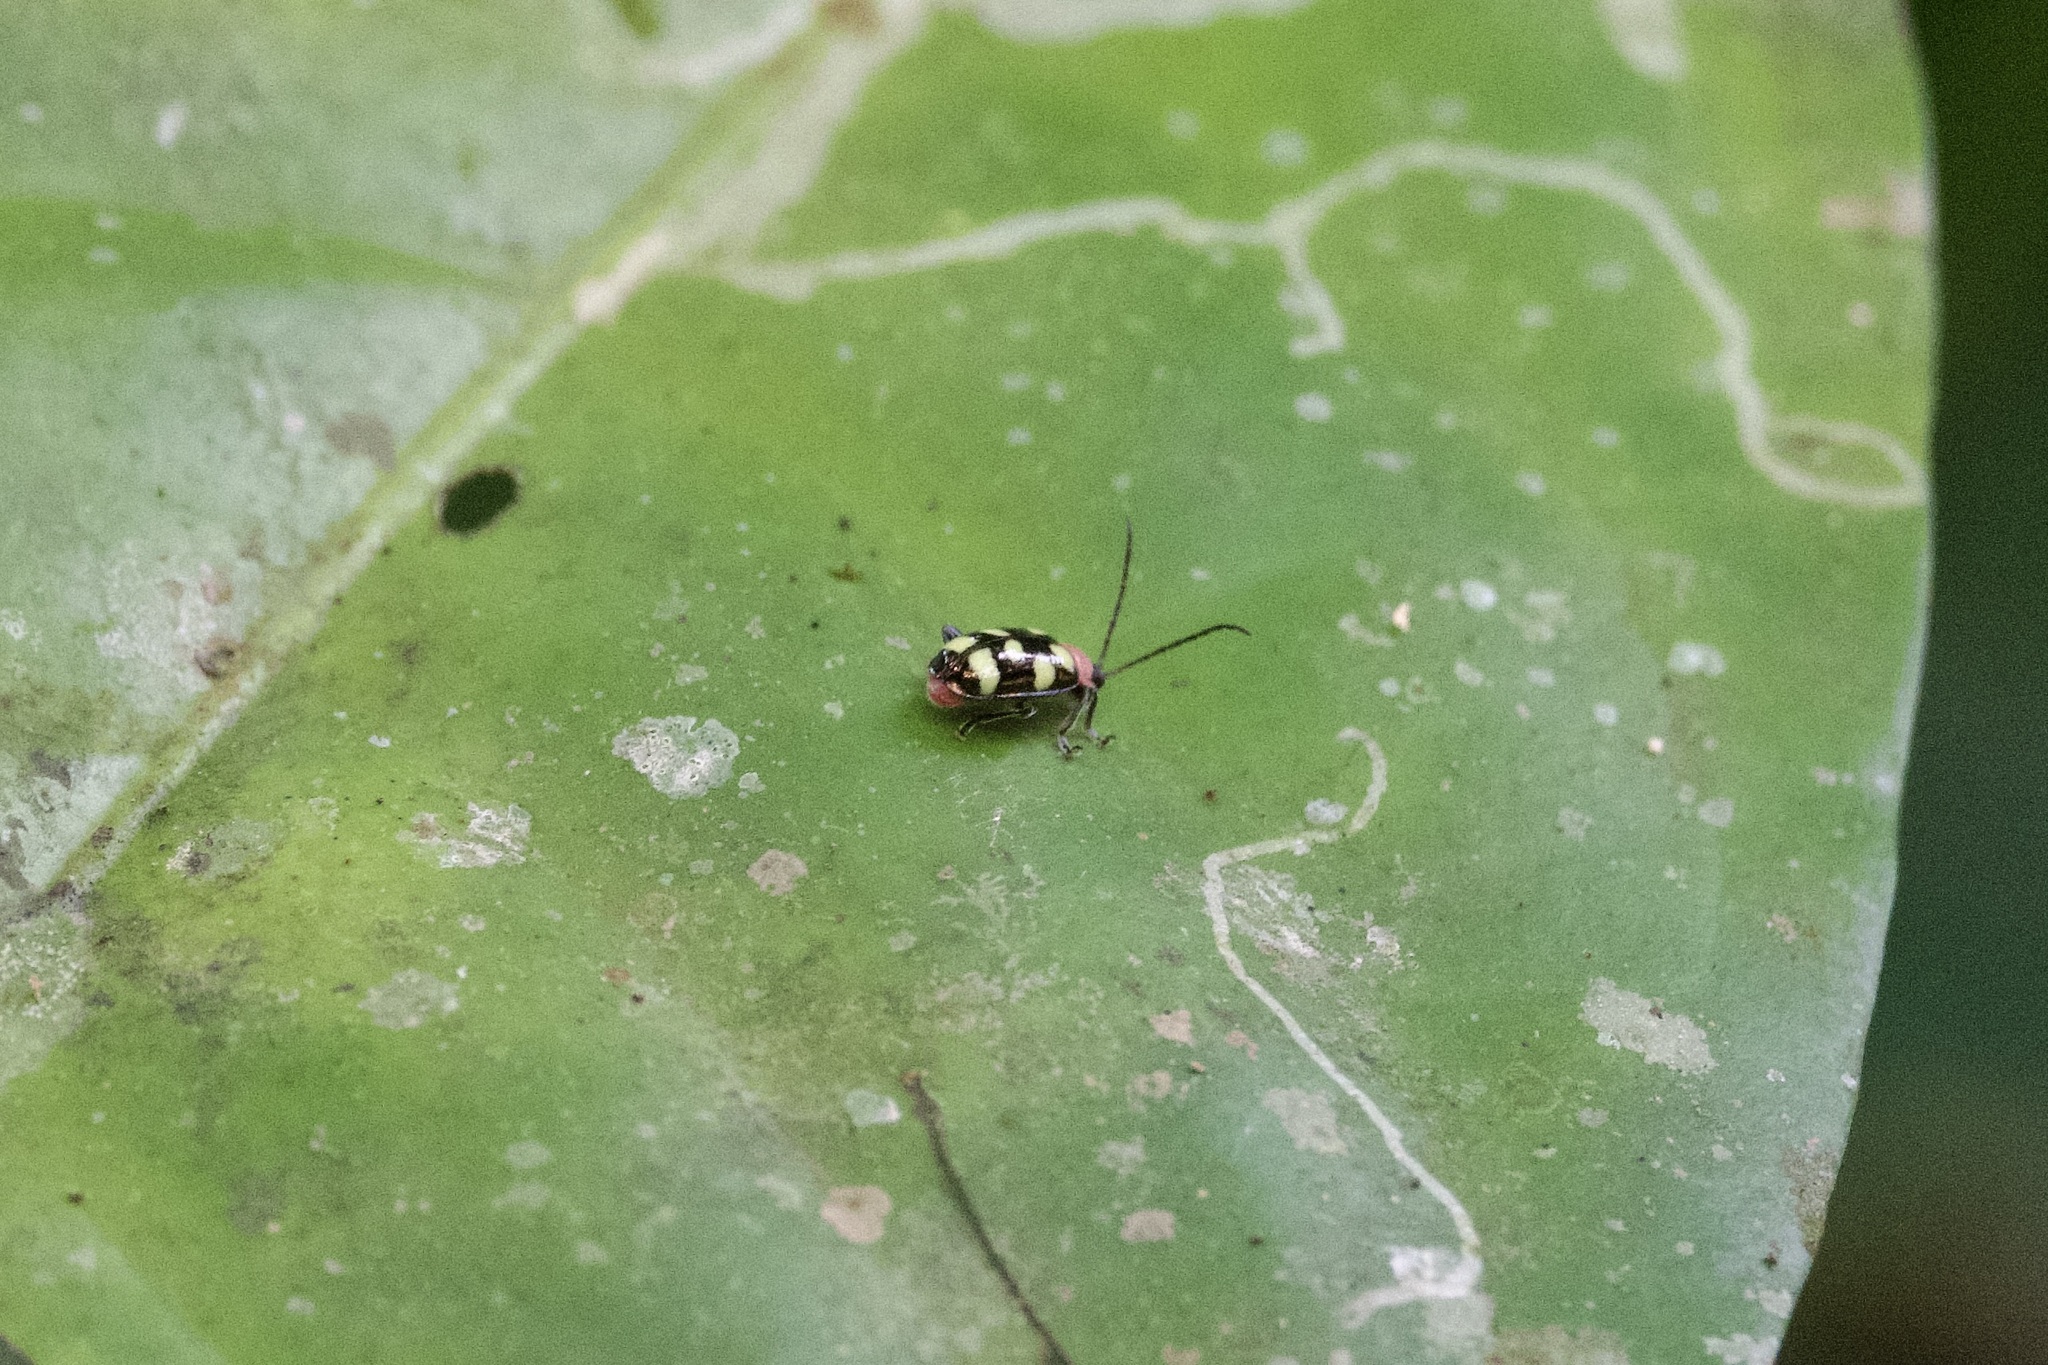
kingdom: Animalia
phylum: Arthropoda
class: Insecta
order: Coleoptera
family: Chrysomelidae
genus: Omophoita
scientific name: Omophoita aequinoctialis
